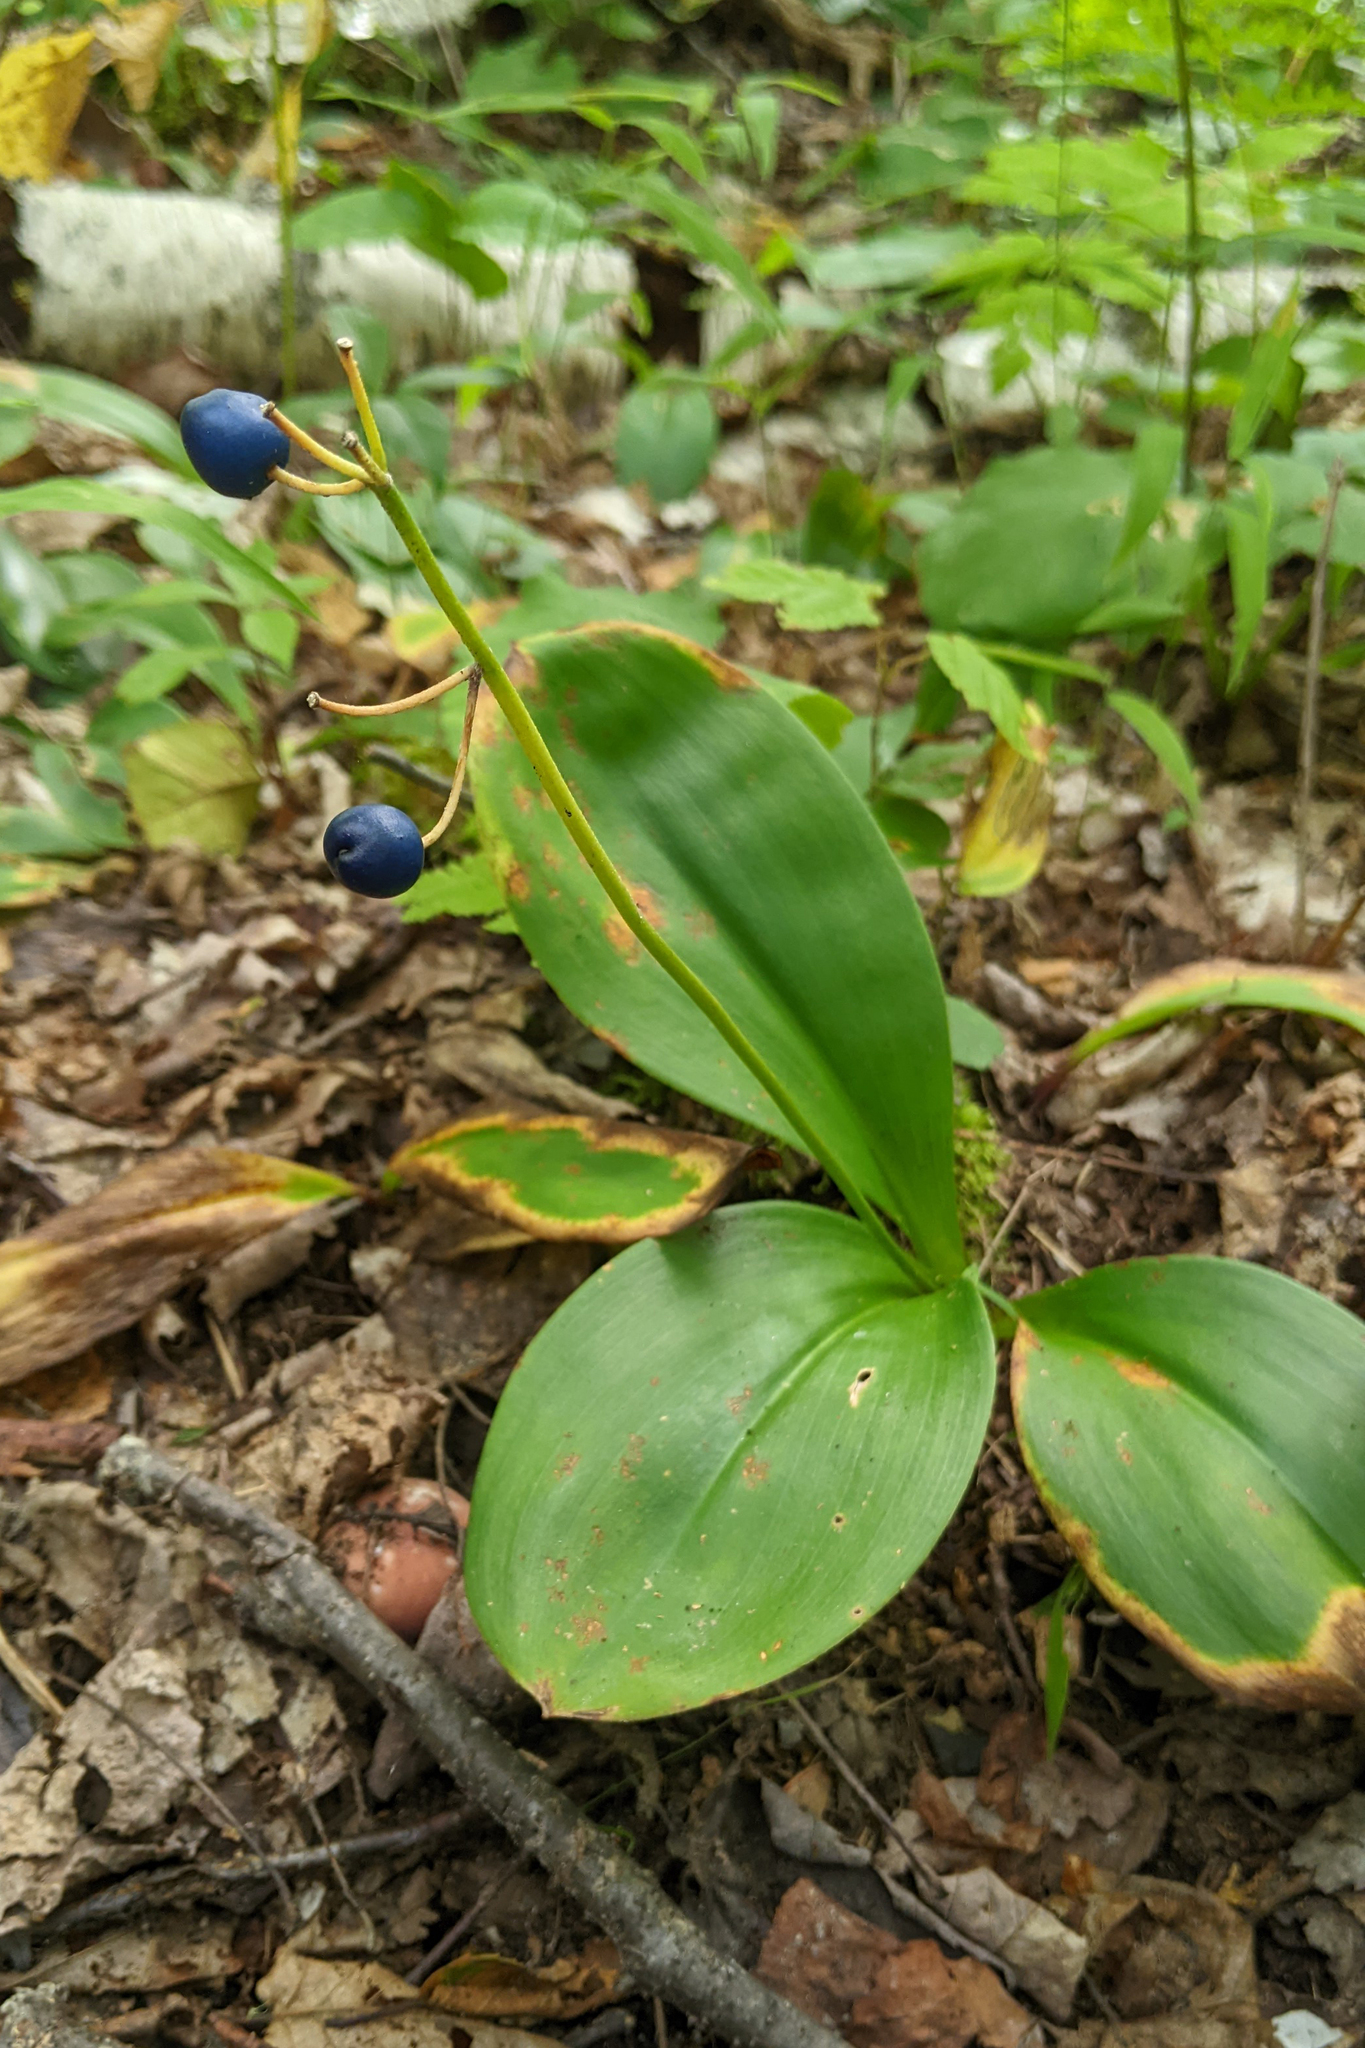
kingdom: Plantae
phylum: Tracheophyta
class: Liliopsida
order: Liliales
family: Liliaceae
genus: Clintonia
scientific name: Clintonia borealis
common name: Yellow clintonia
